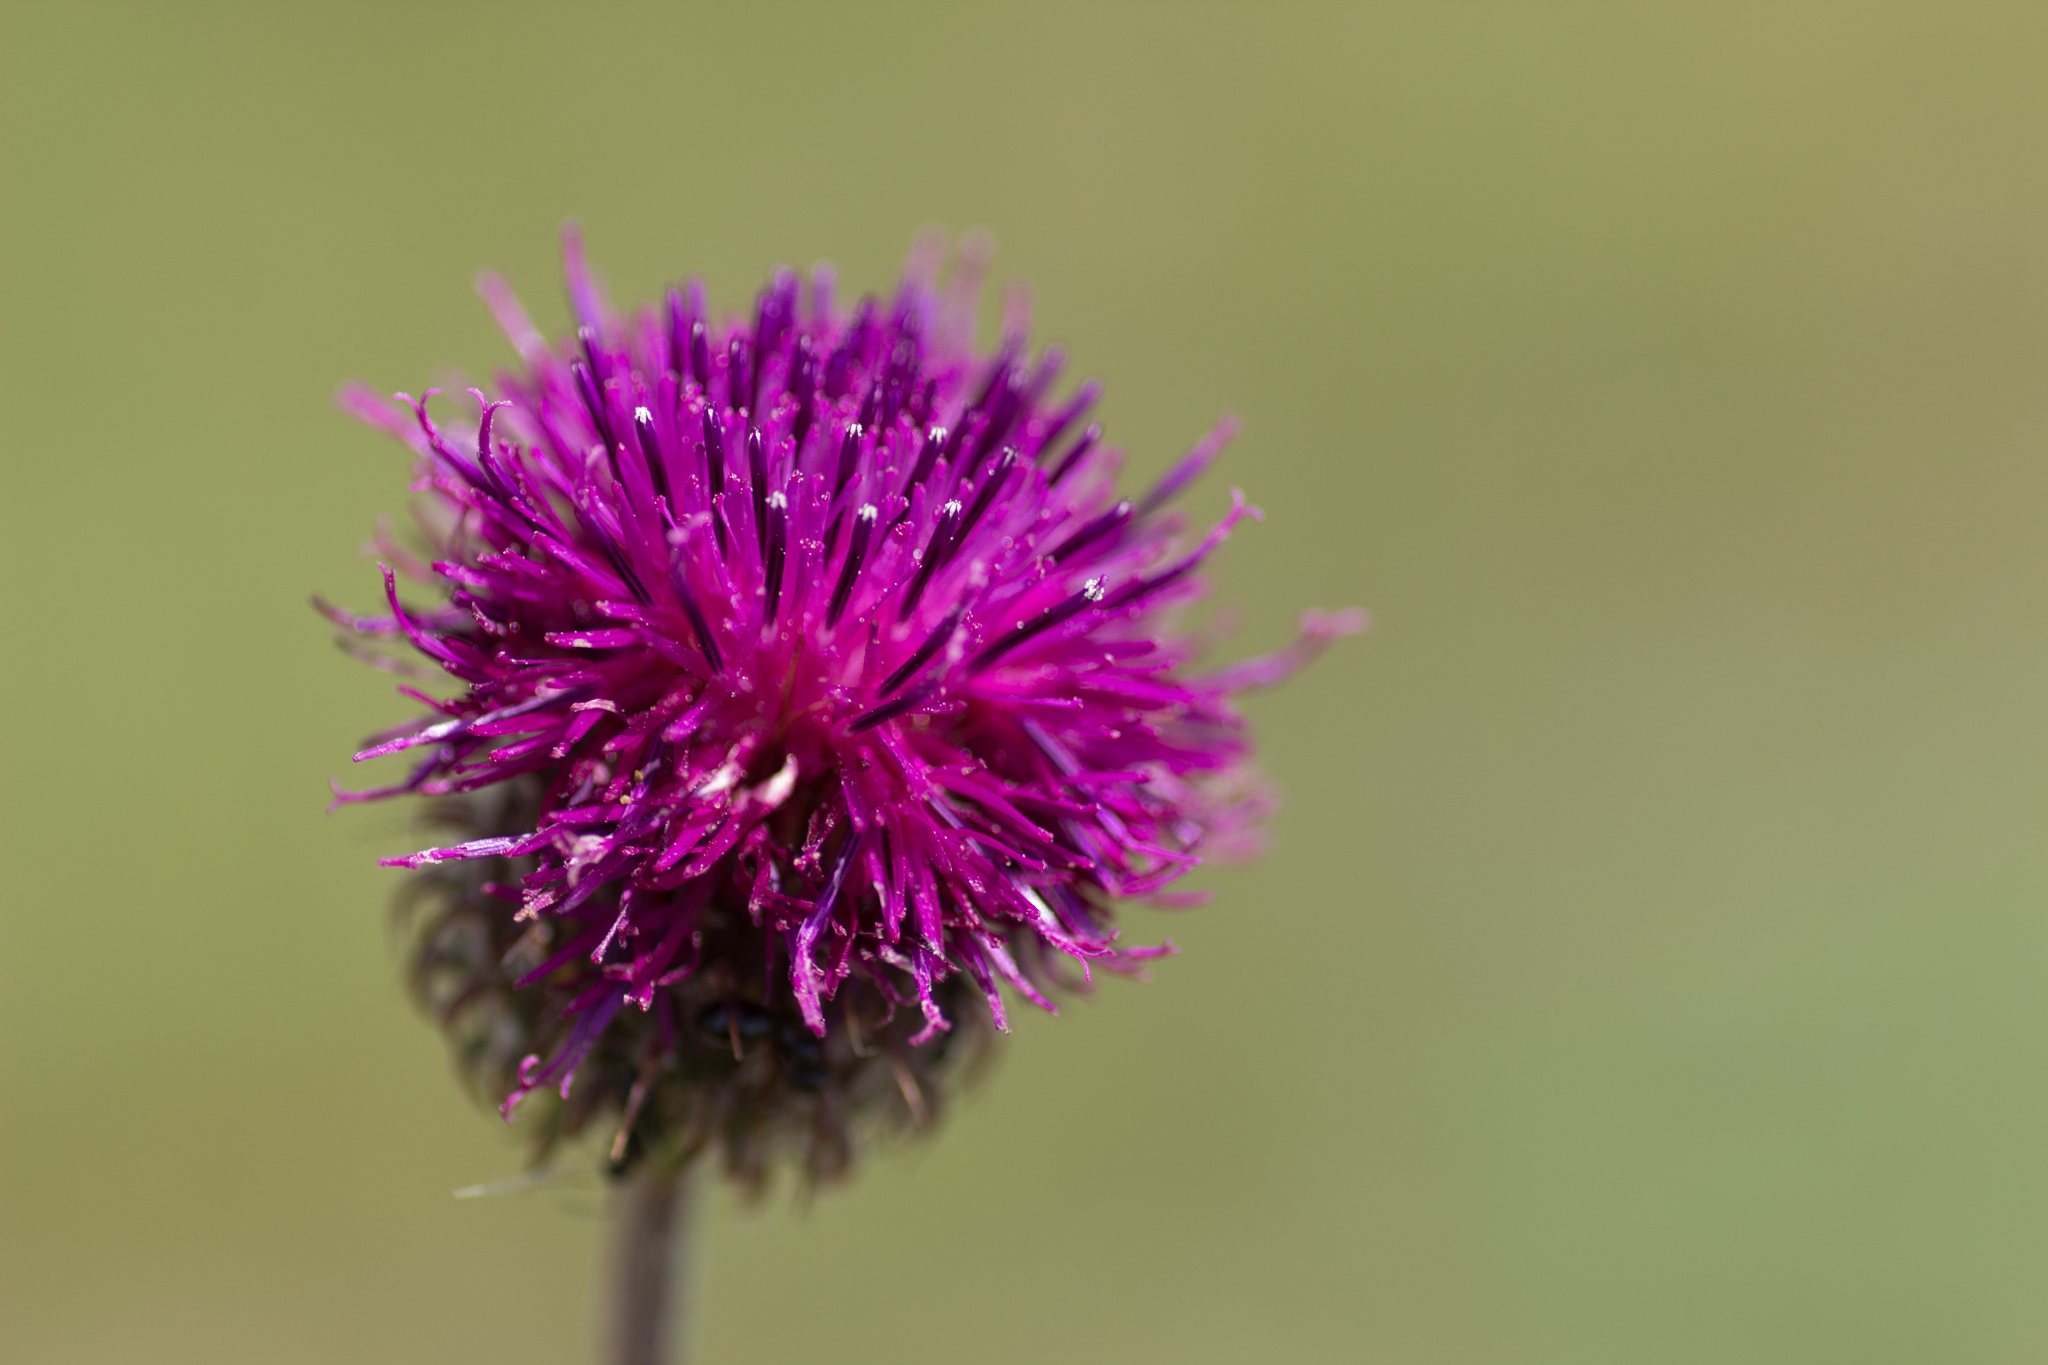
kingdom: Plantae
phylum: Tracheophyta
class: Magnoliopsida
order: Asterales
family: Asteraceae
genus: Jurinea
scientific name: Jurinea mollis
